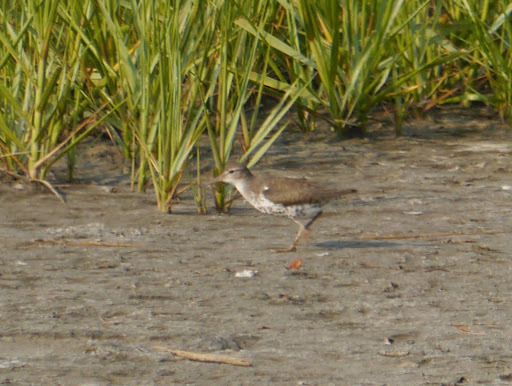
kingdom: Animalia
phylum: Chordata
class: Aves
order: Charadriiformes
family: Scolopacidae
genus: Actitis
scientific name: Actitis macularius
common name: Spotted sandpiper
